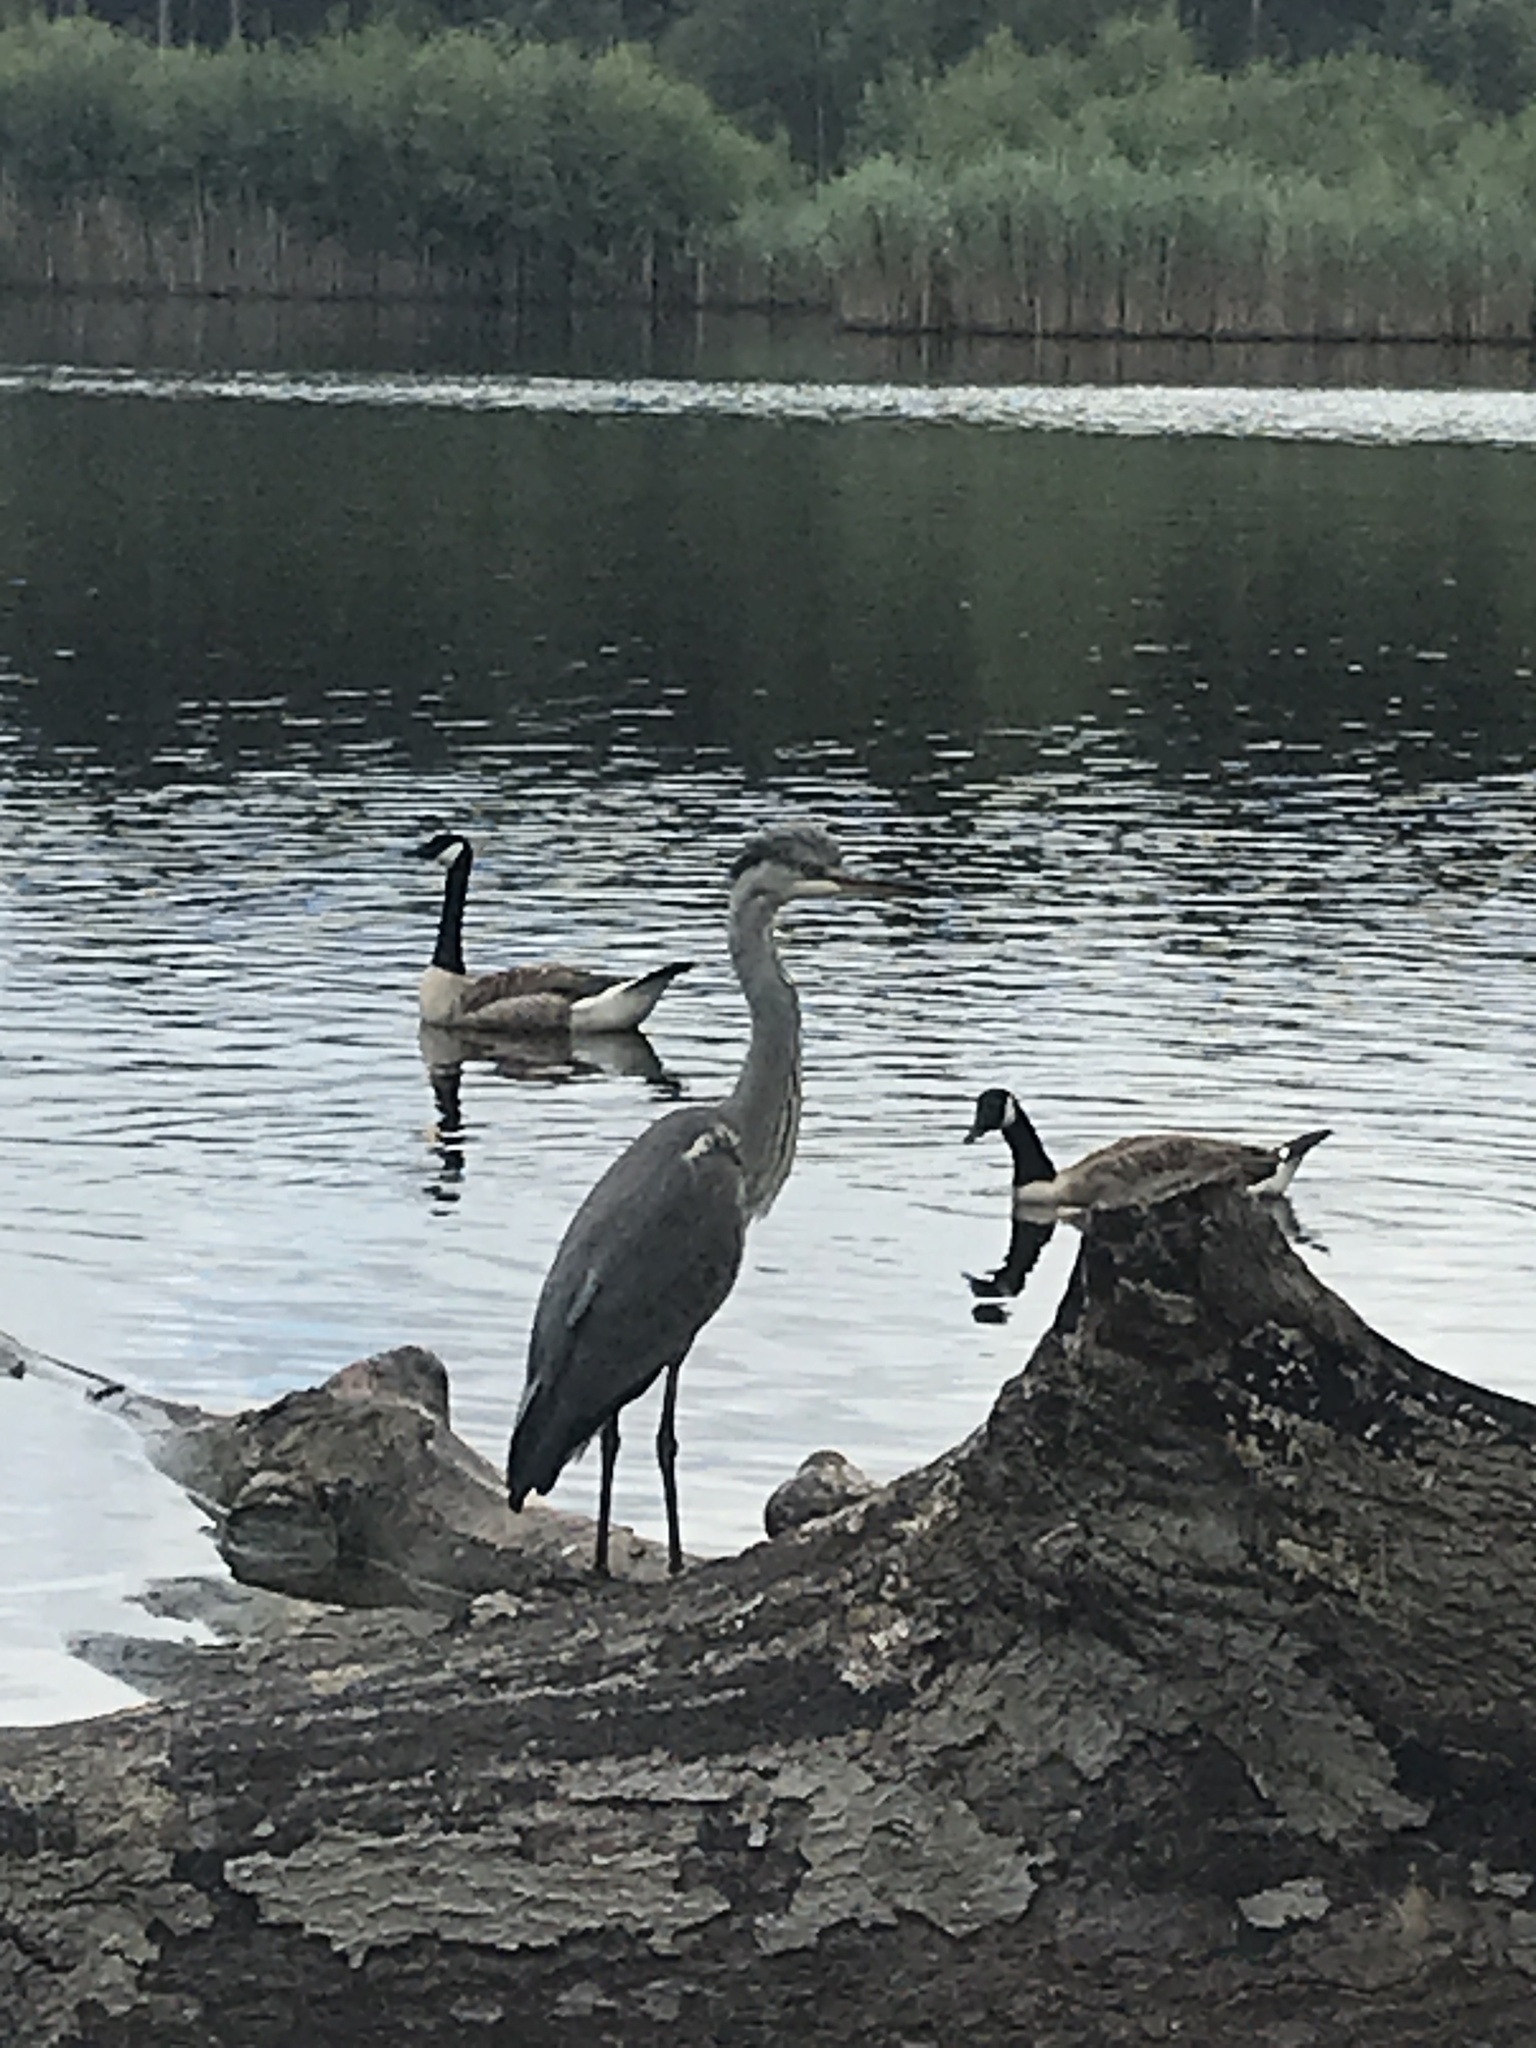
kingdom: Animalia
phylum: Chordata
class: Aves
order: Pelecaniformes
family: Ardeidae
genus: Ardea
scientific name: Ardea cinerea
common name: Grey heron
